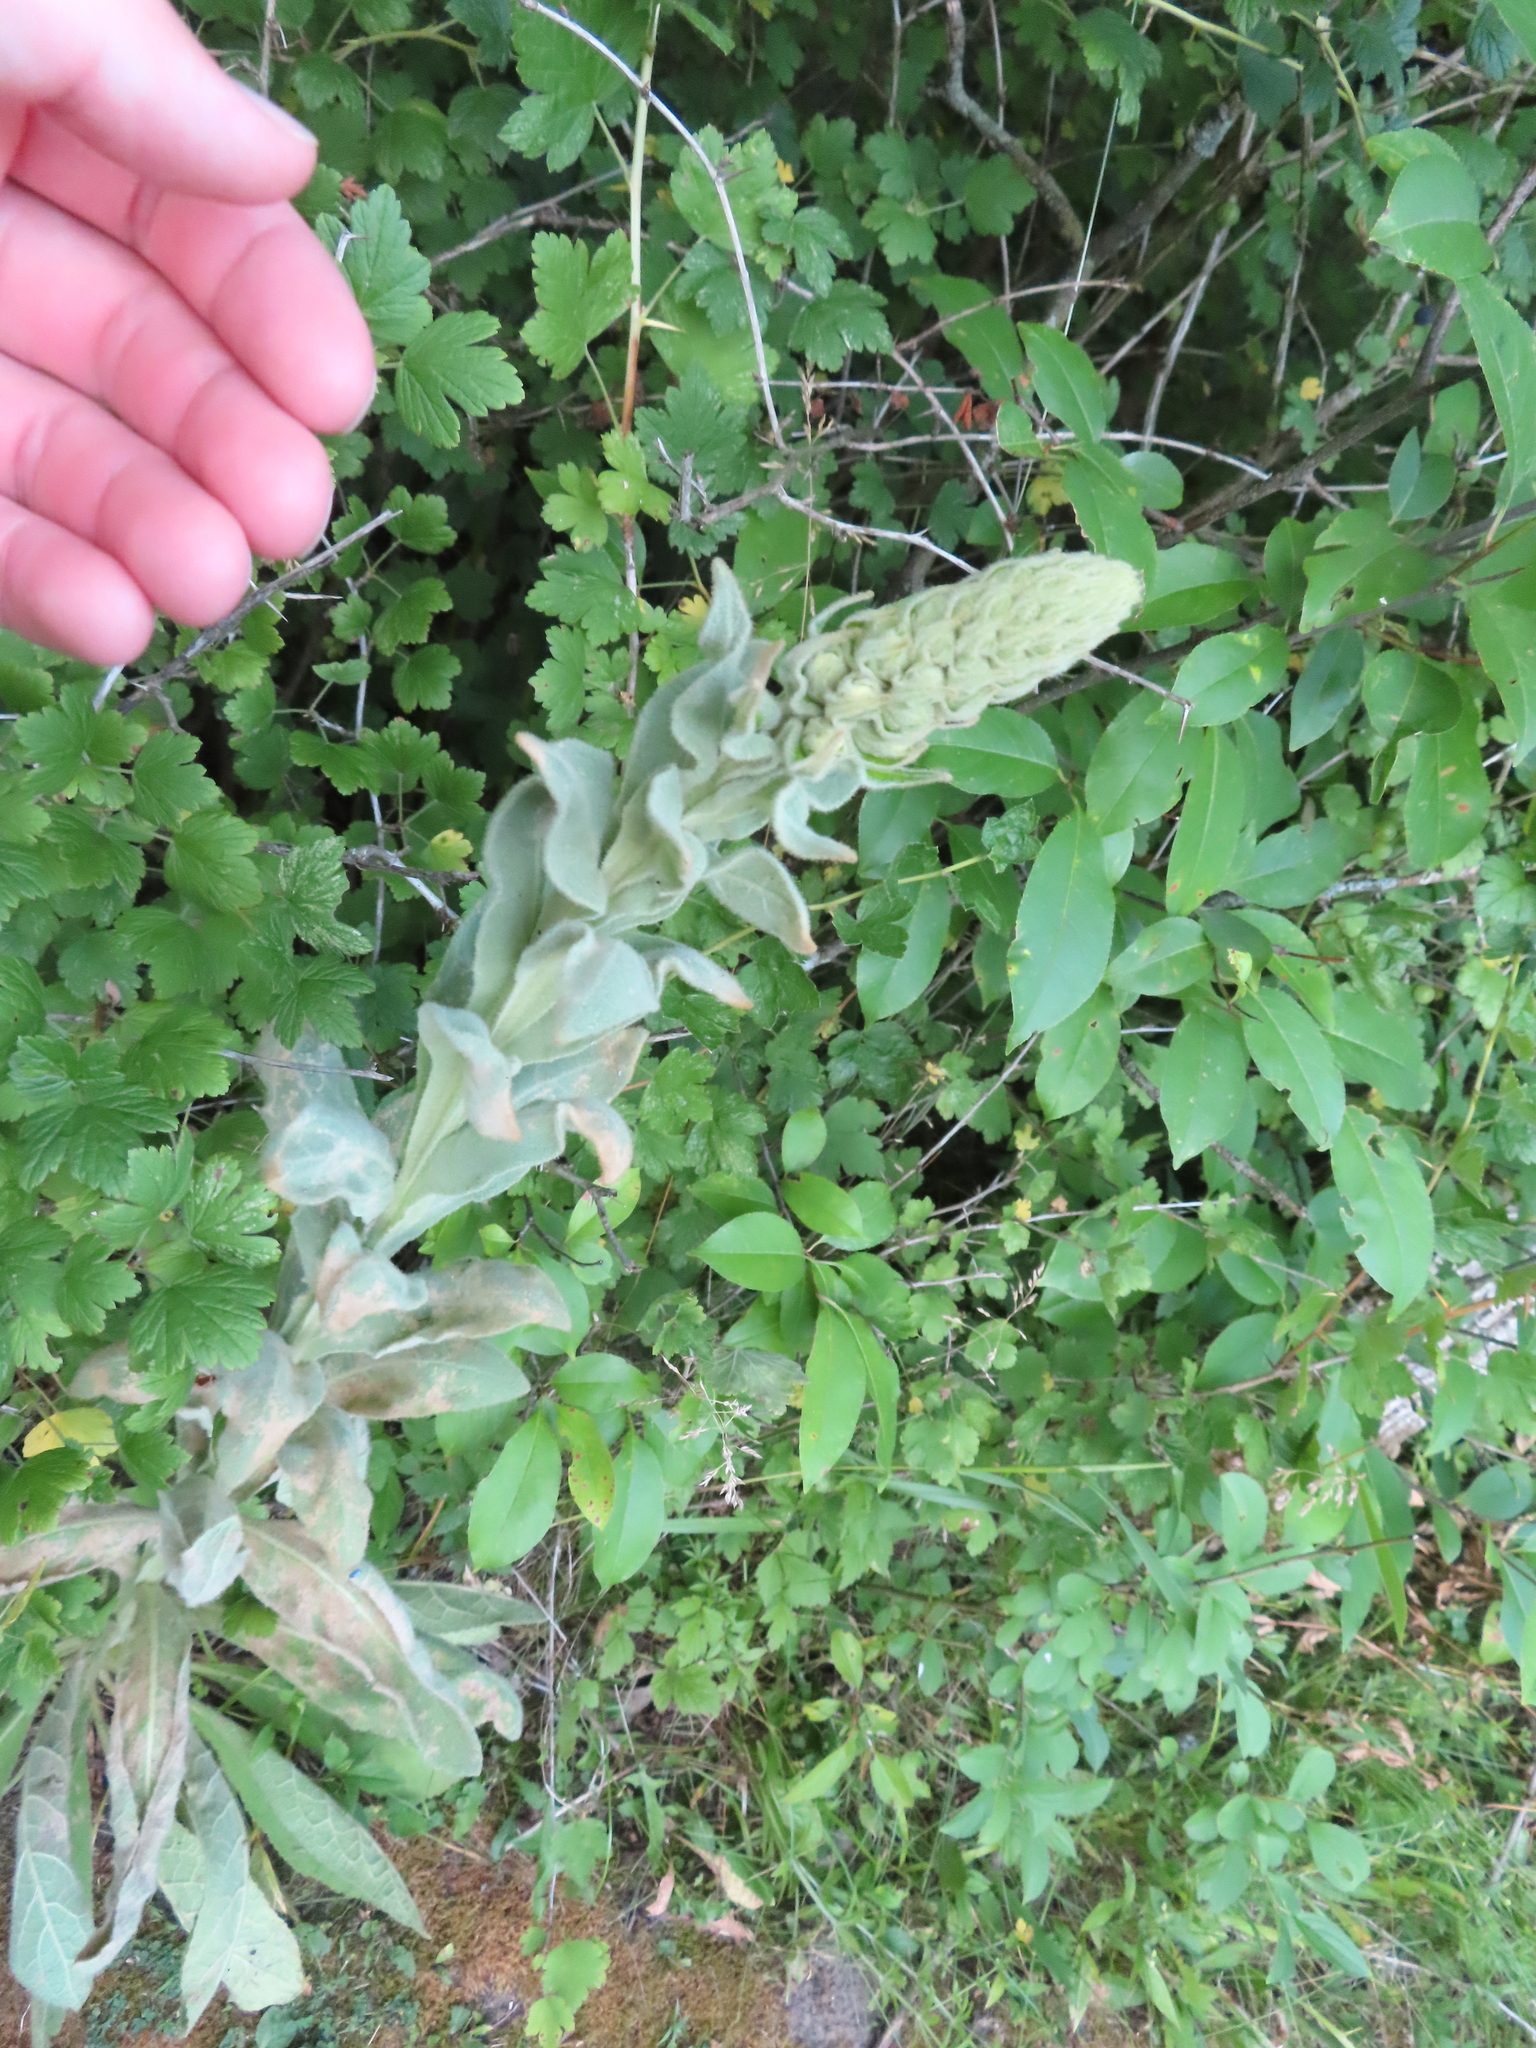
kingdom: Plantae
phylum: Tracheophyta
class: Magnoliopsida
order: Lamiales
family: Scrophulariaceae
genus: Verbascum
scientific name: Verbascum thapsus
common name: Common mullein
